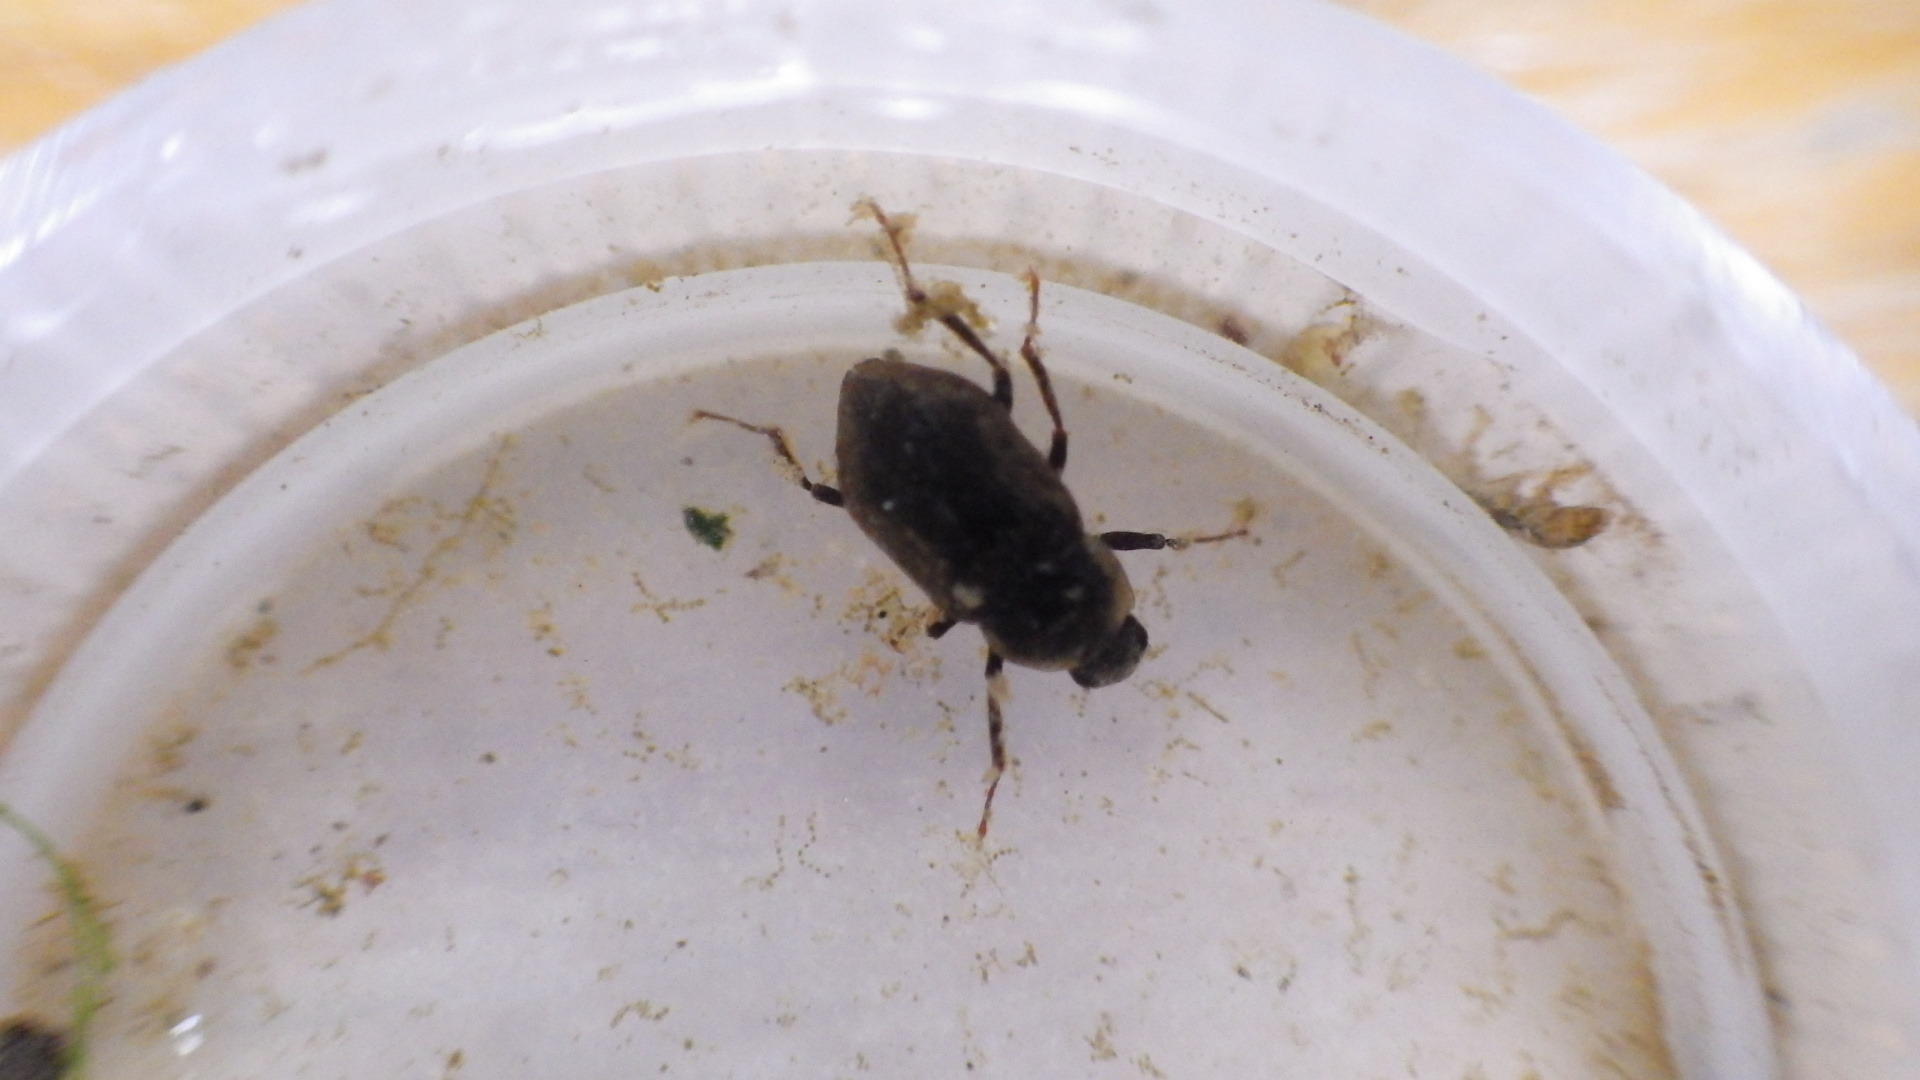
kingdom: Animalia
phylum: Arthropoda
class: Insecta
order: Coleoptera
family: Dryopidae
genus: Helichus
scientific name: Helichus
